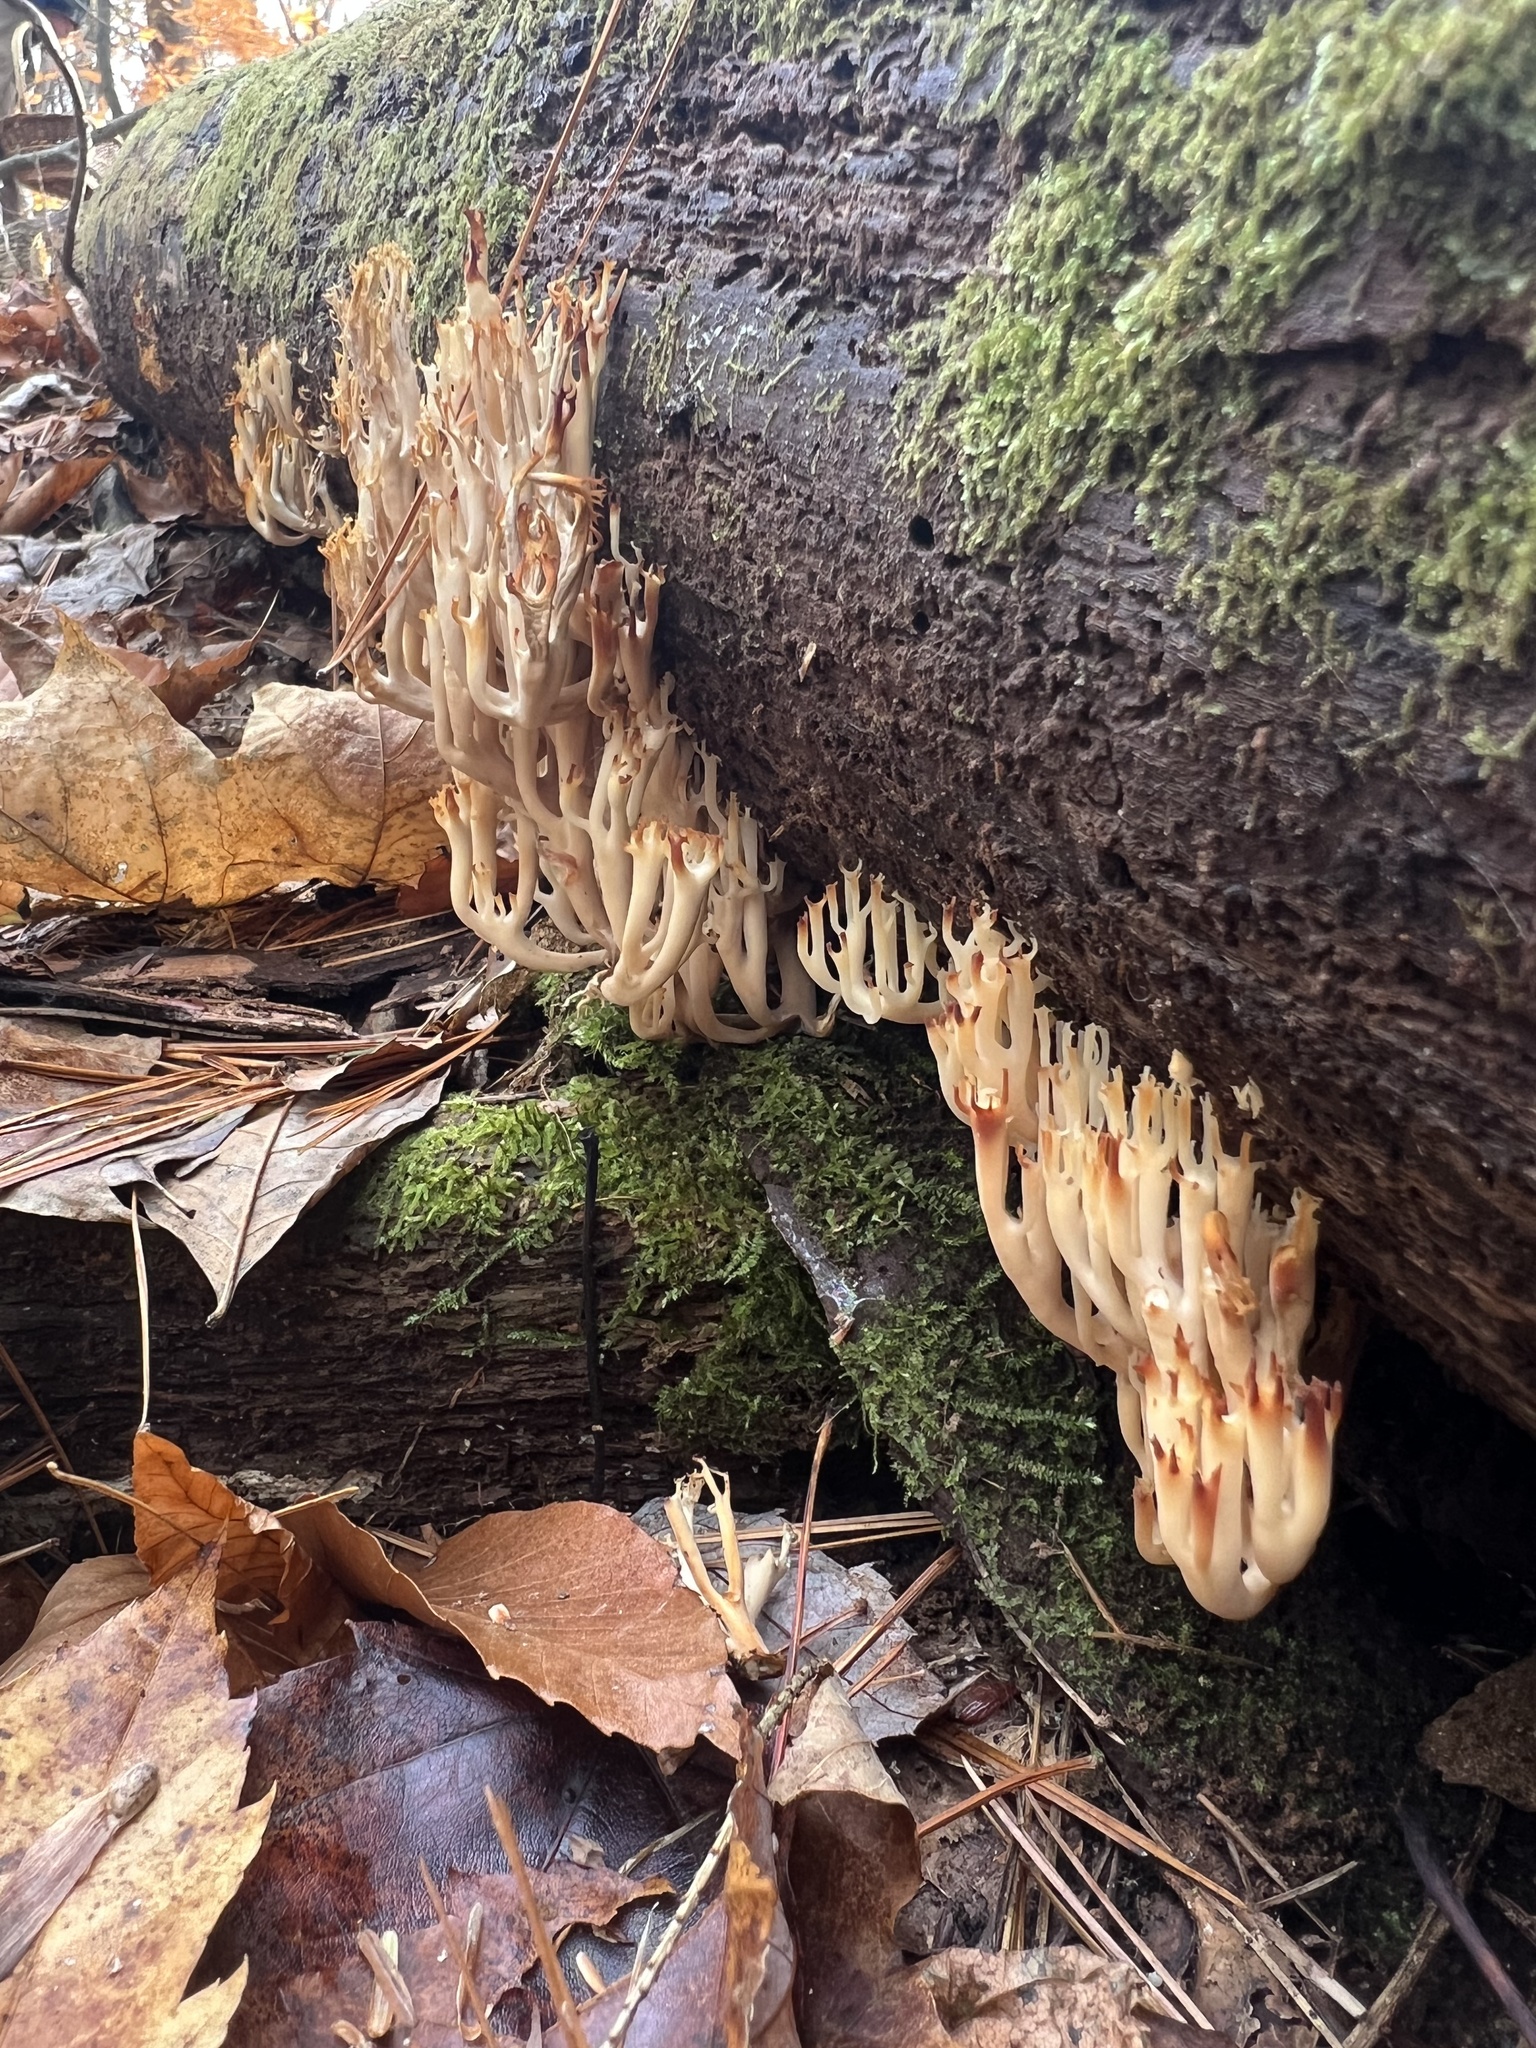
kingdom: Fungi
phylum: Basidiomycota
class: Agaricomycetes
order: Russulales
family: Auriscalpiaceae
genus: Artomyces
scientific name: Artomyces pyxidatus
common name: Crown-tipped coral fungus
